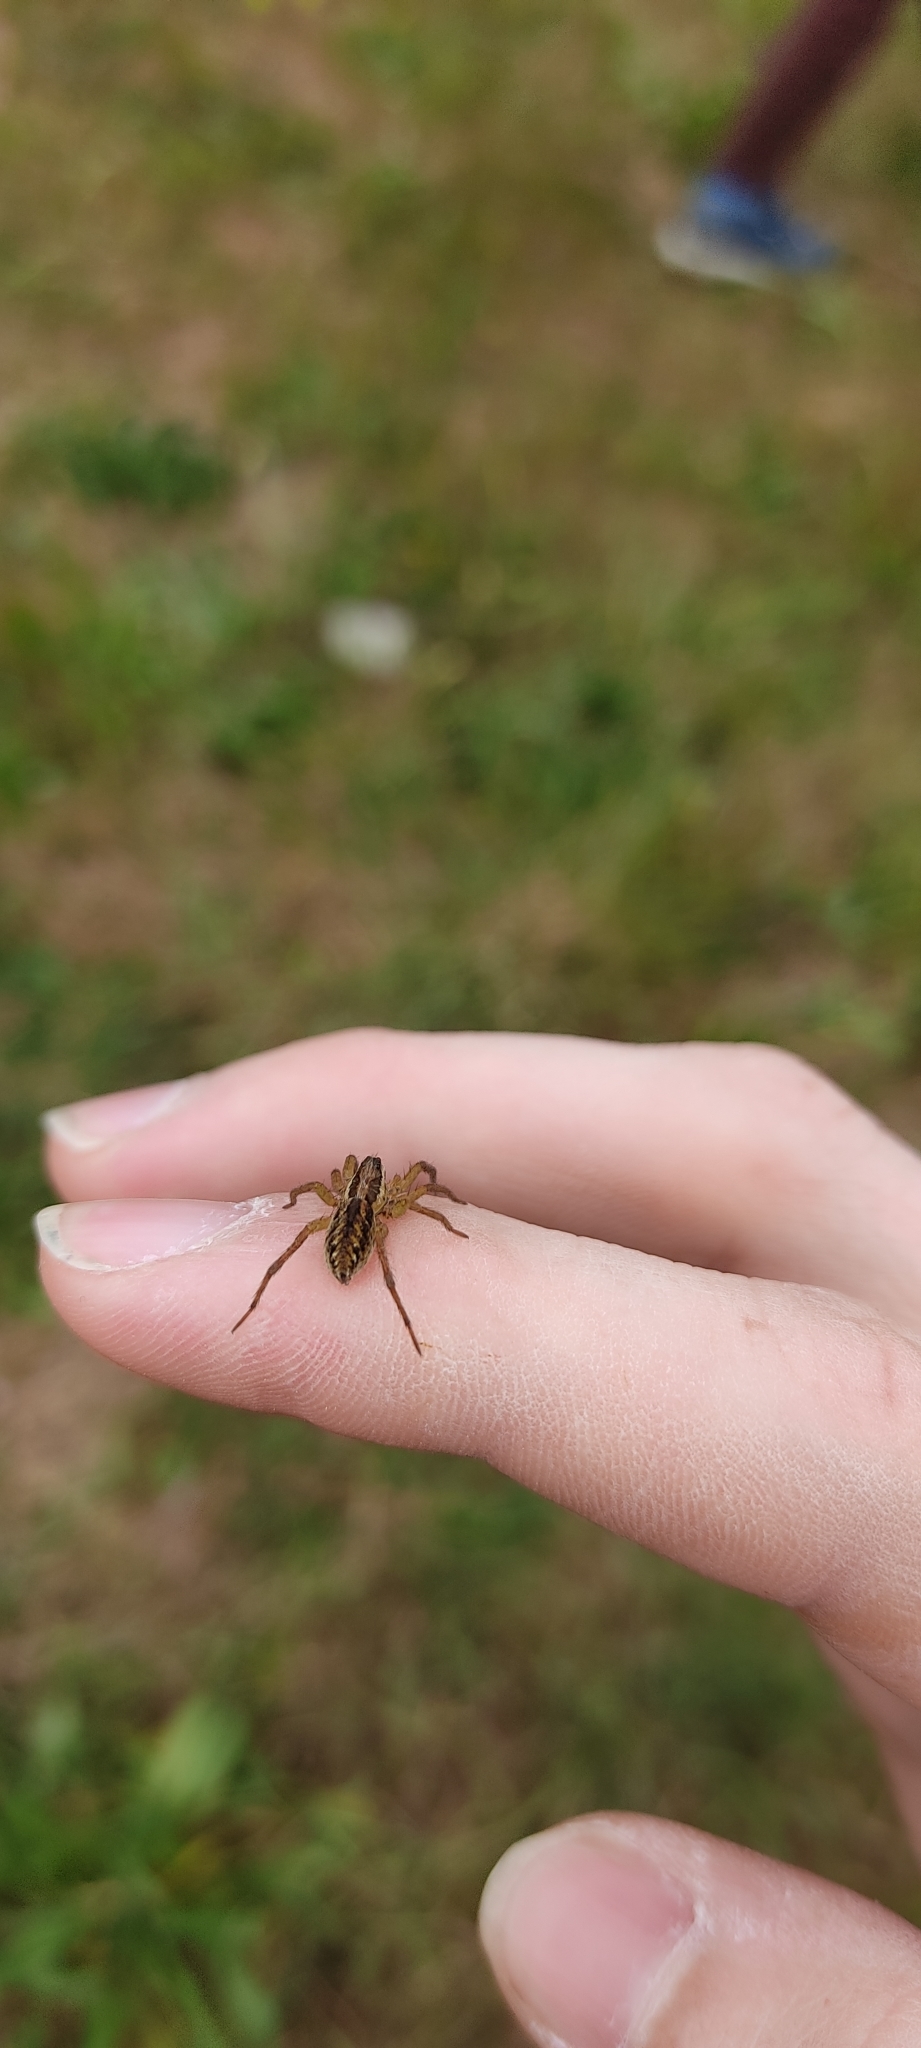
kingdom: Animalia
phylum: Arthropoda
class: Arachnida
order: Araneae
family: Lycosidae
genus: Hogna
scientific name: Hogna radiata
